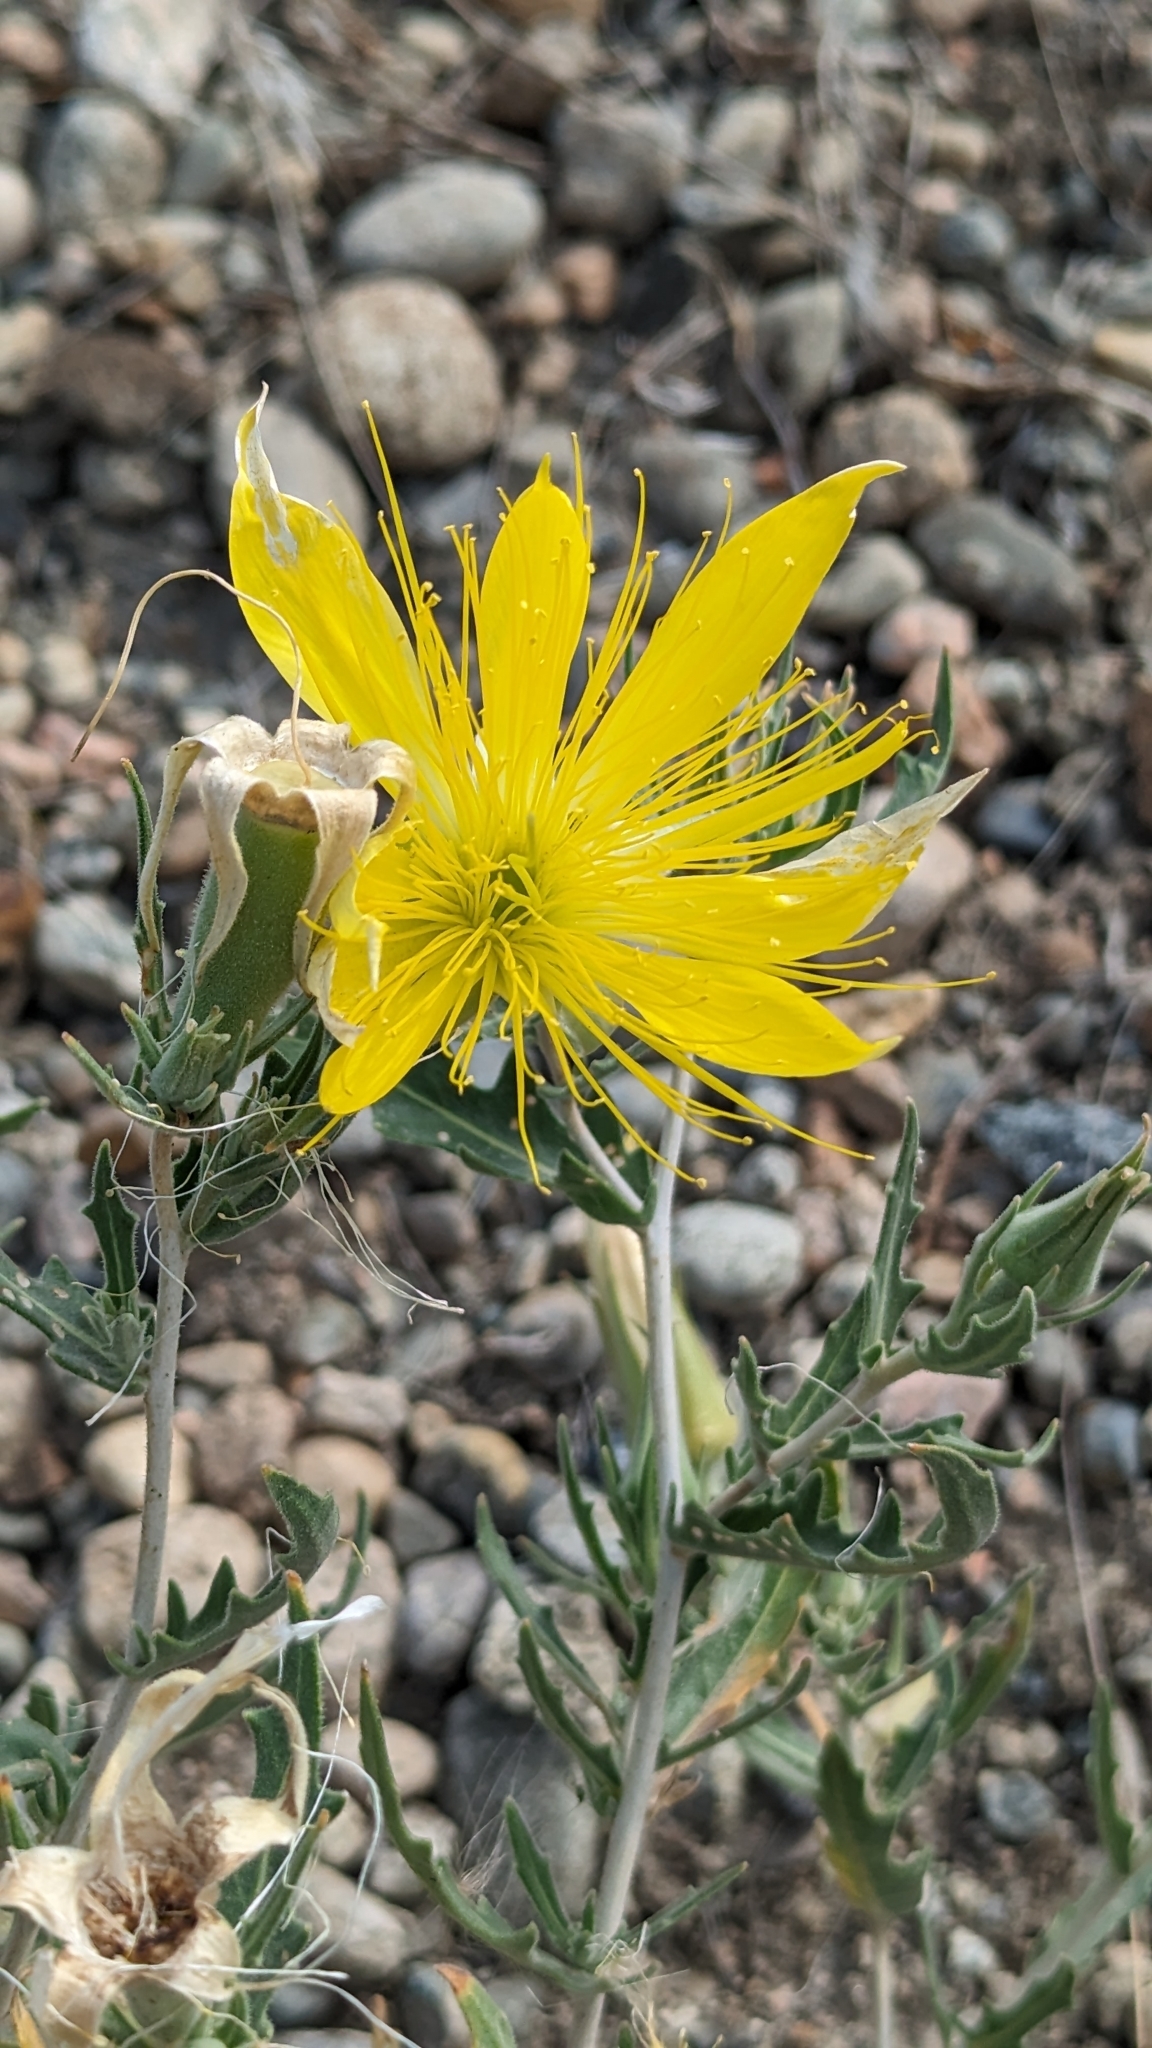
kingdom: Plantae
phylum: Tracheophyta
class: Magnoliopsida
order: Cornales
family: Loasaceae
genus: Mentzelia
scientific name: Mentzelia laevicaulis
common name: Smooth-stem blazingstar
